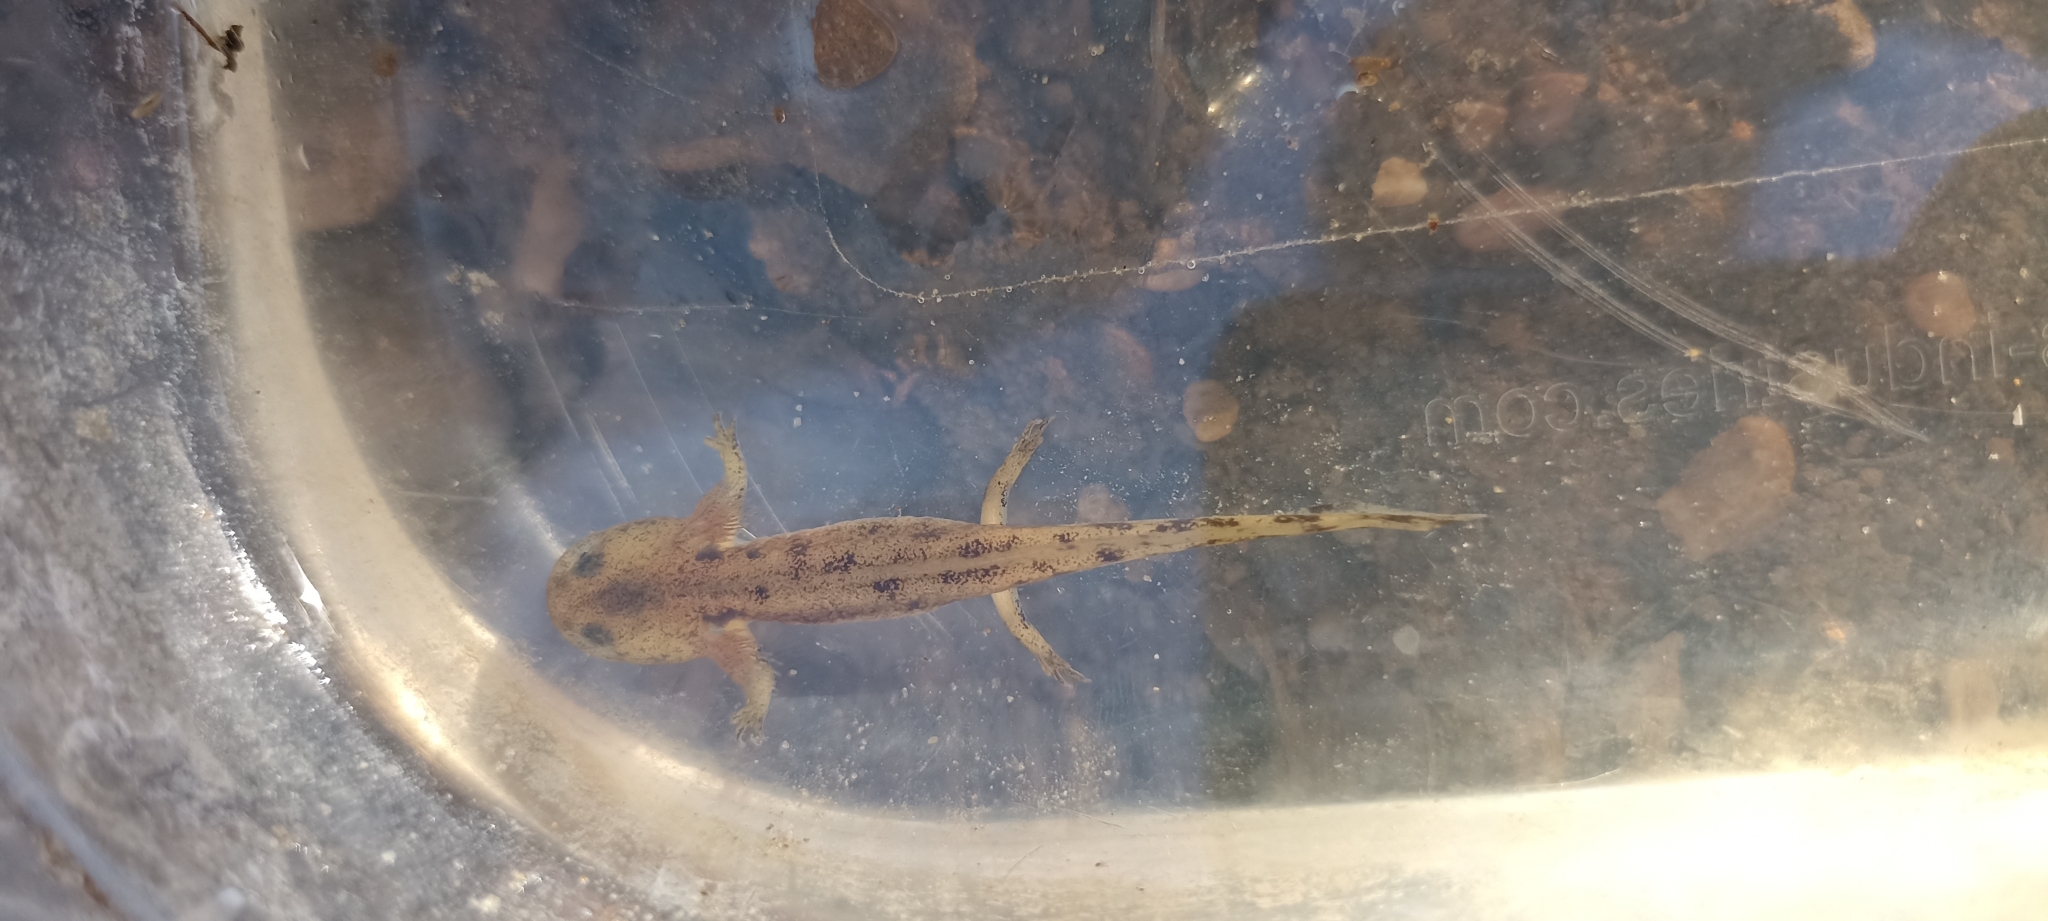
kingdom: Animalia
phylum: Chordata
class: Amphibia
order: Caudata
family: Salamandridae
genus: Salamandra
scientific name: Salamandra salamandra
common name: Fire salamander
